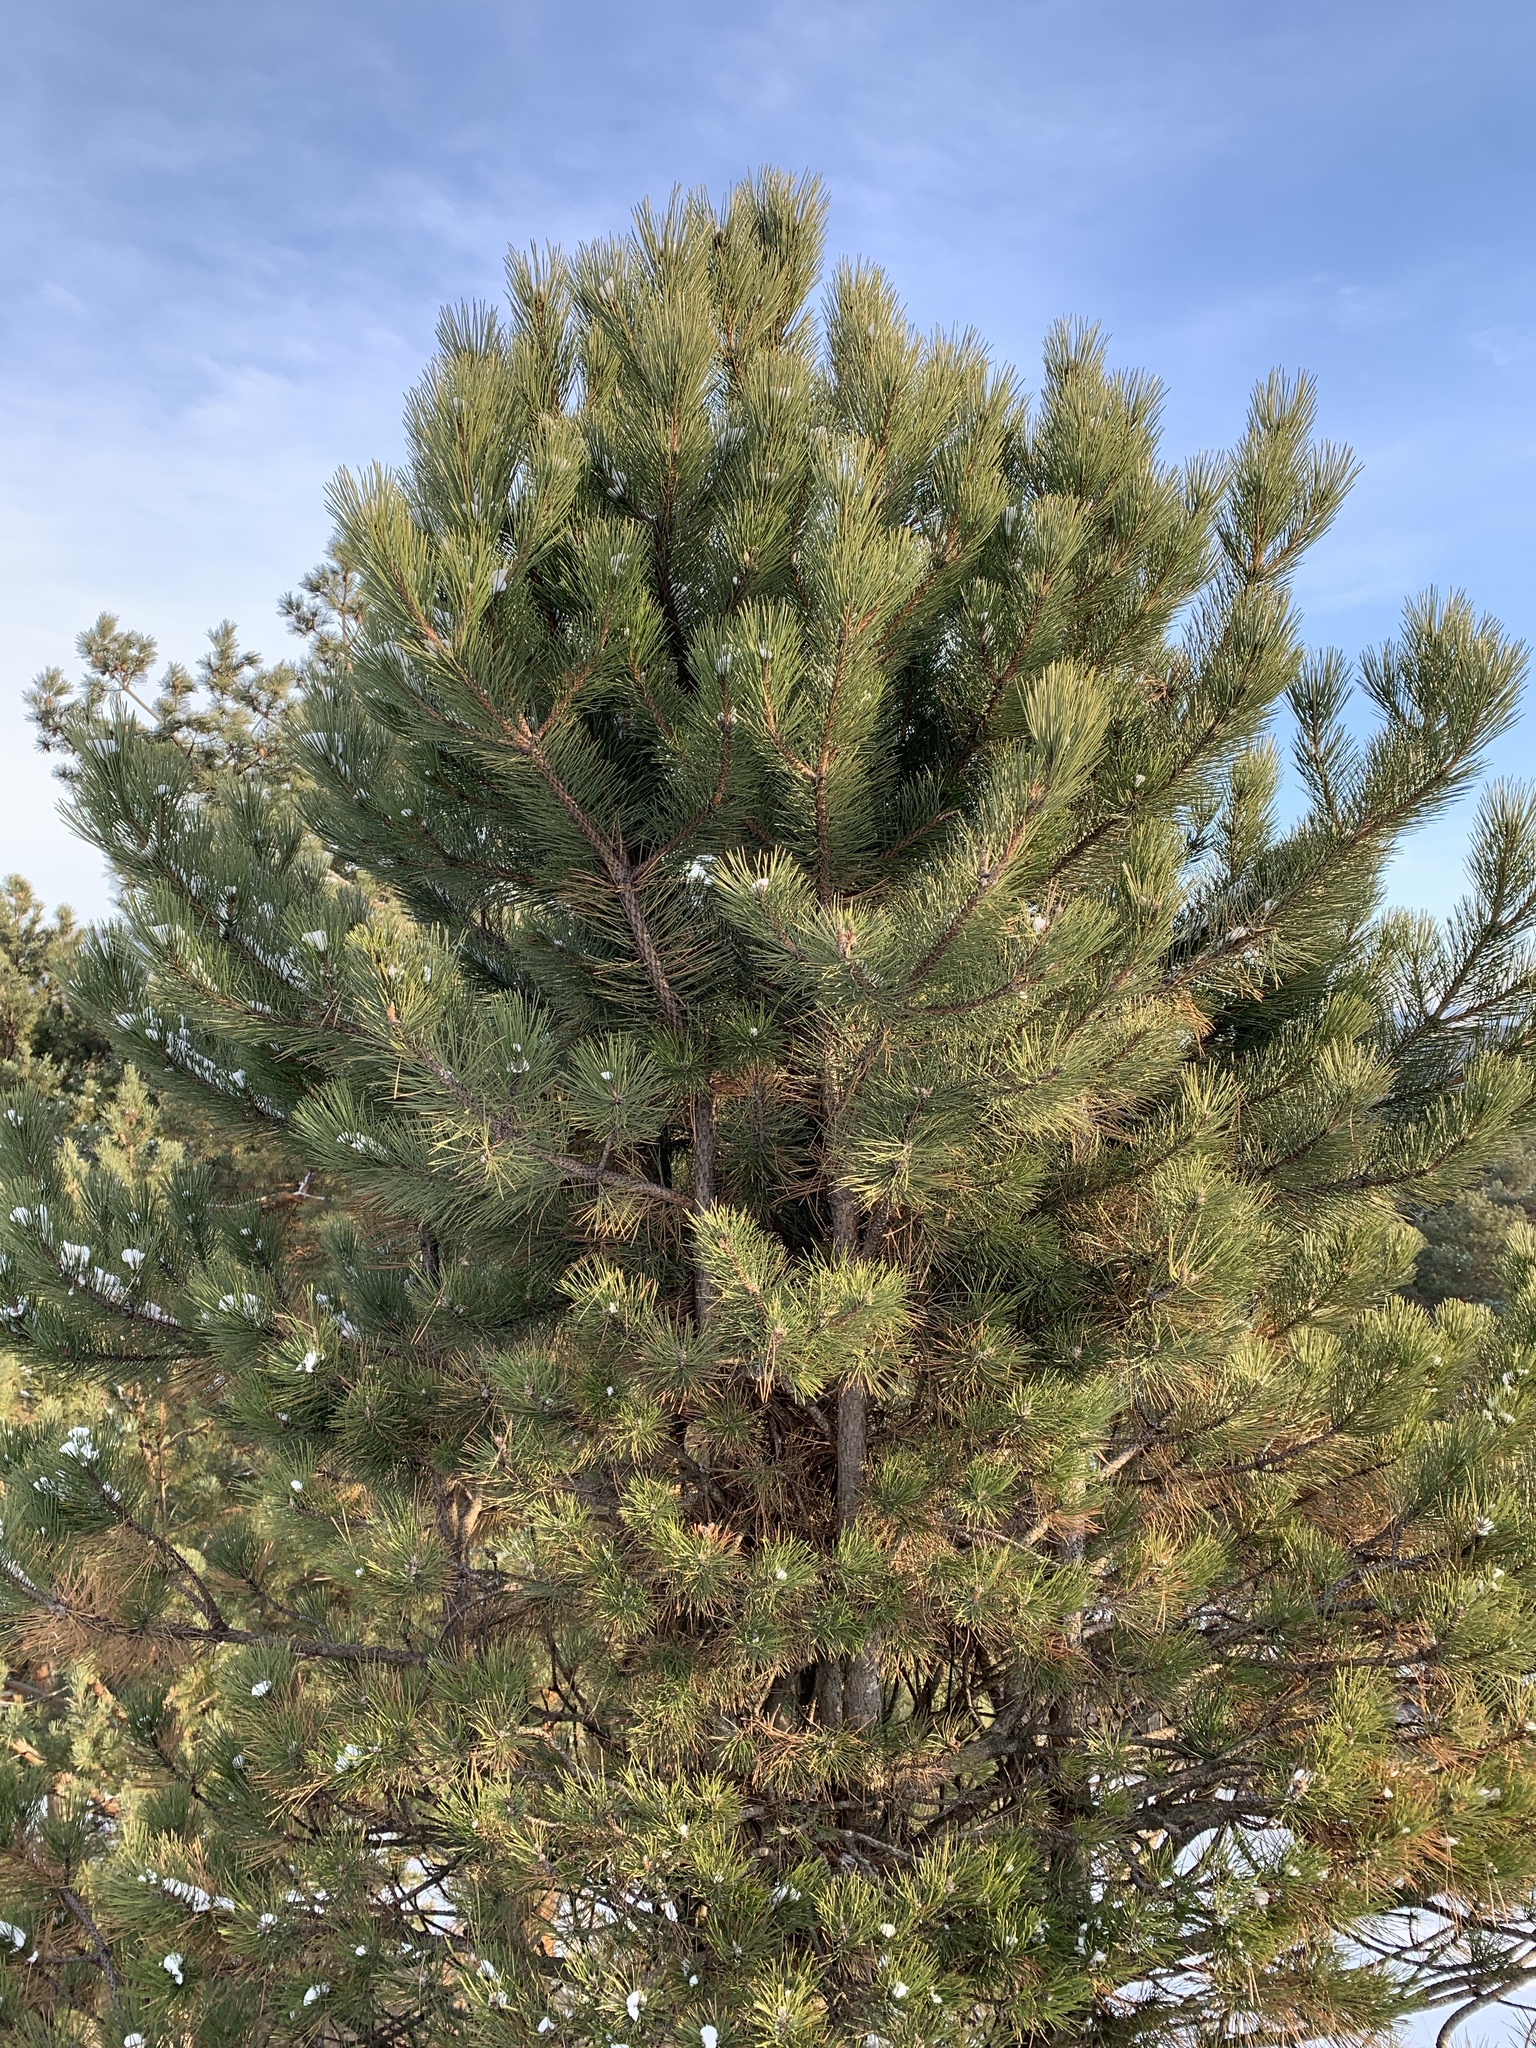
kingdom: Plantae
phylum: Tracheophyta
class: Pinopsida
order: Pinales
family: Pinaceae
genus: Pinus
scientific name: Pinus sylvestris
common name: Scots pine
